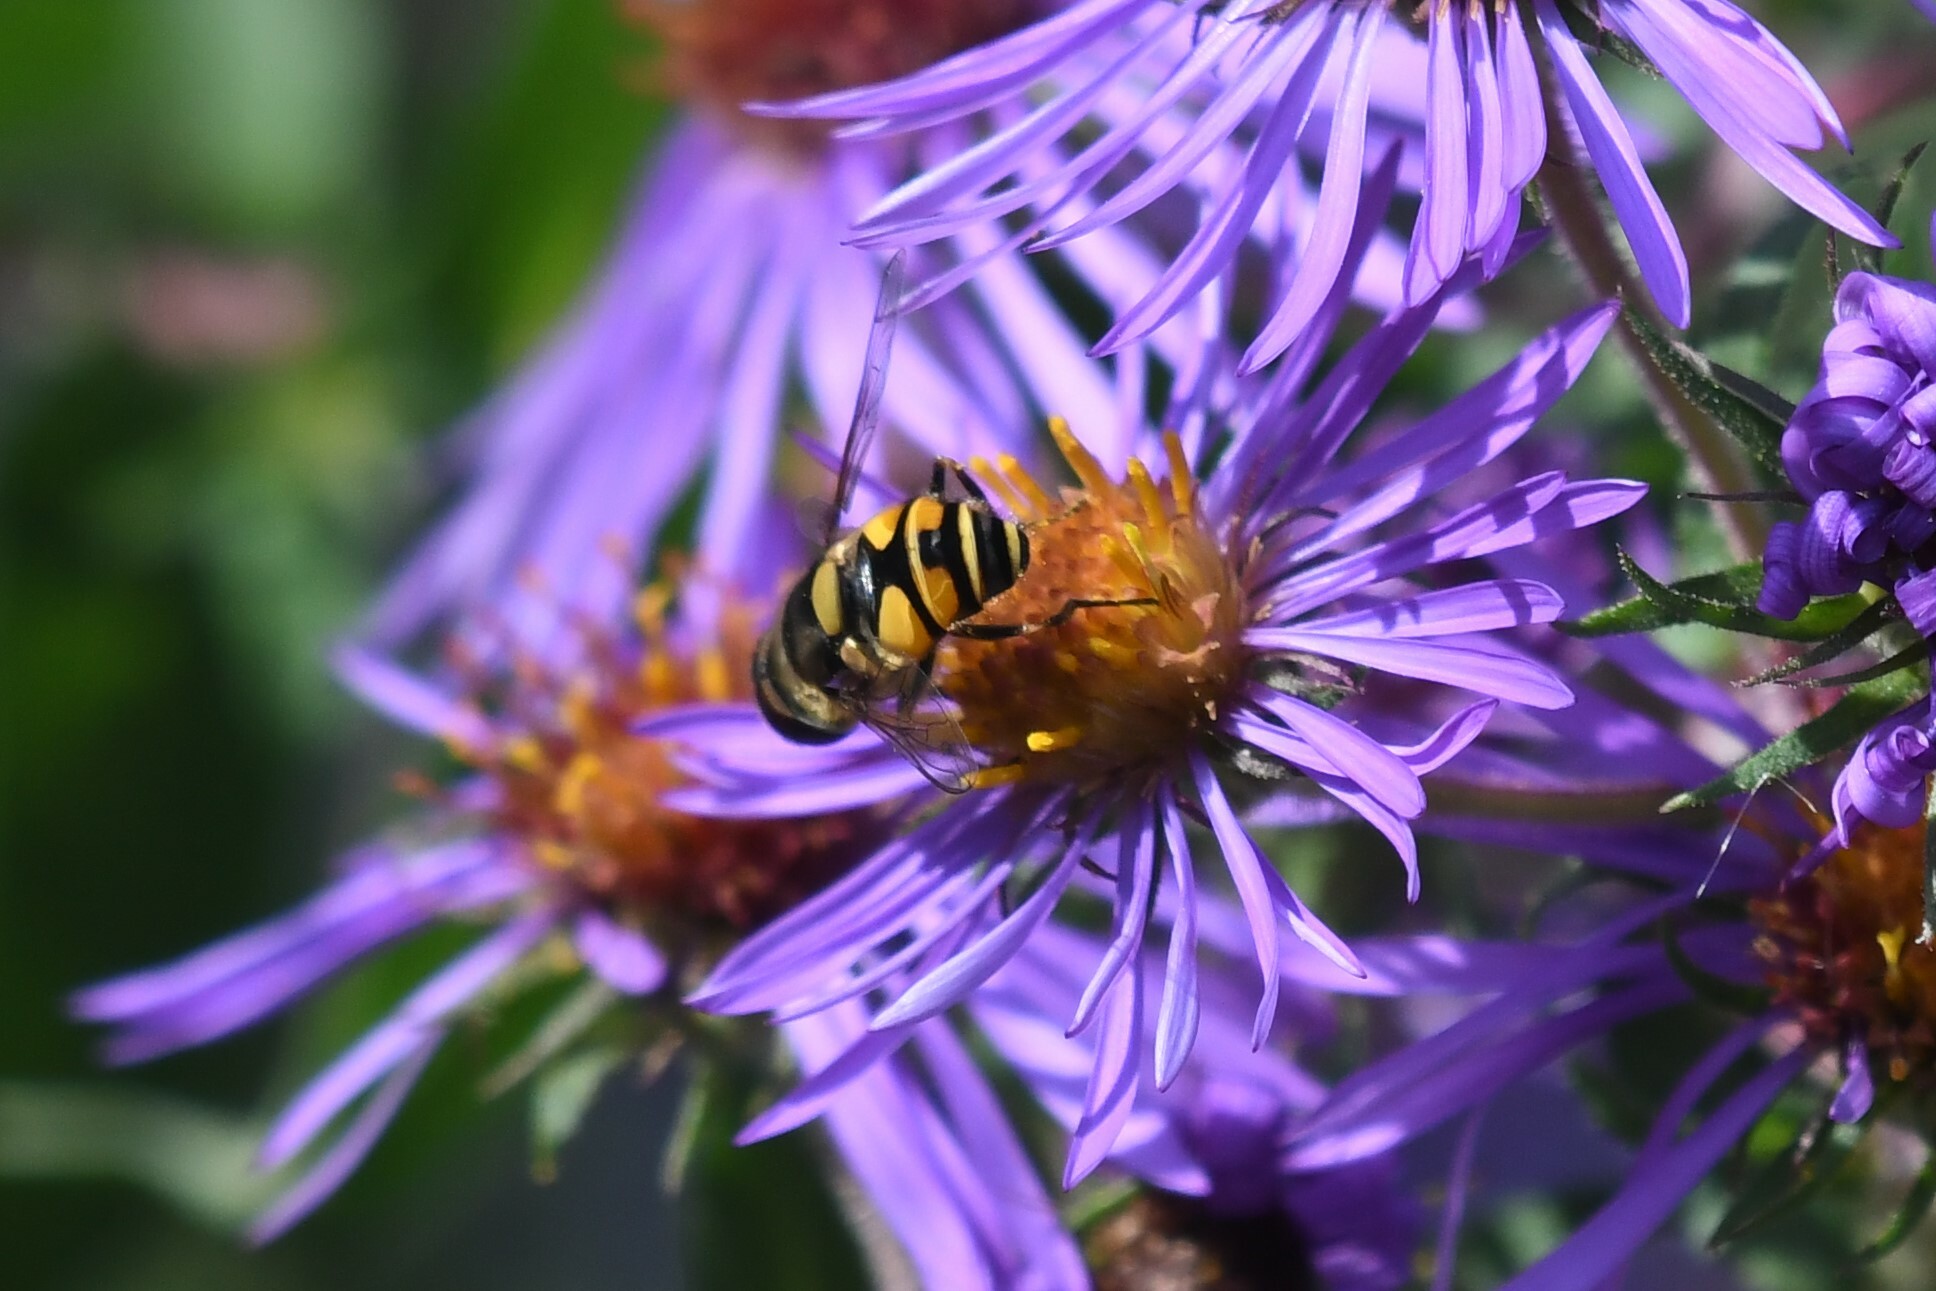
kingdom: Animalia
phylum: Arthropoda
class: Insecta
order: Diptera
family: Syrphidae
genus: Eristalis
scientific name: Eristalis transversa
